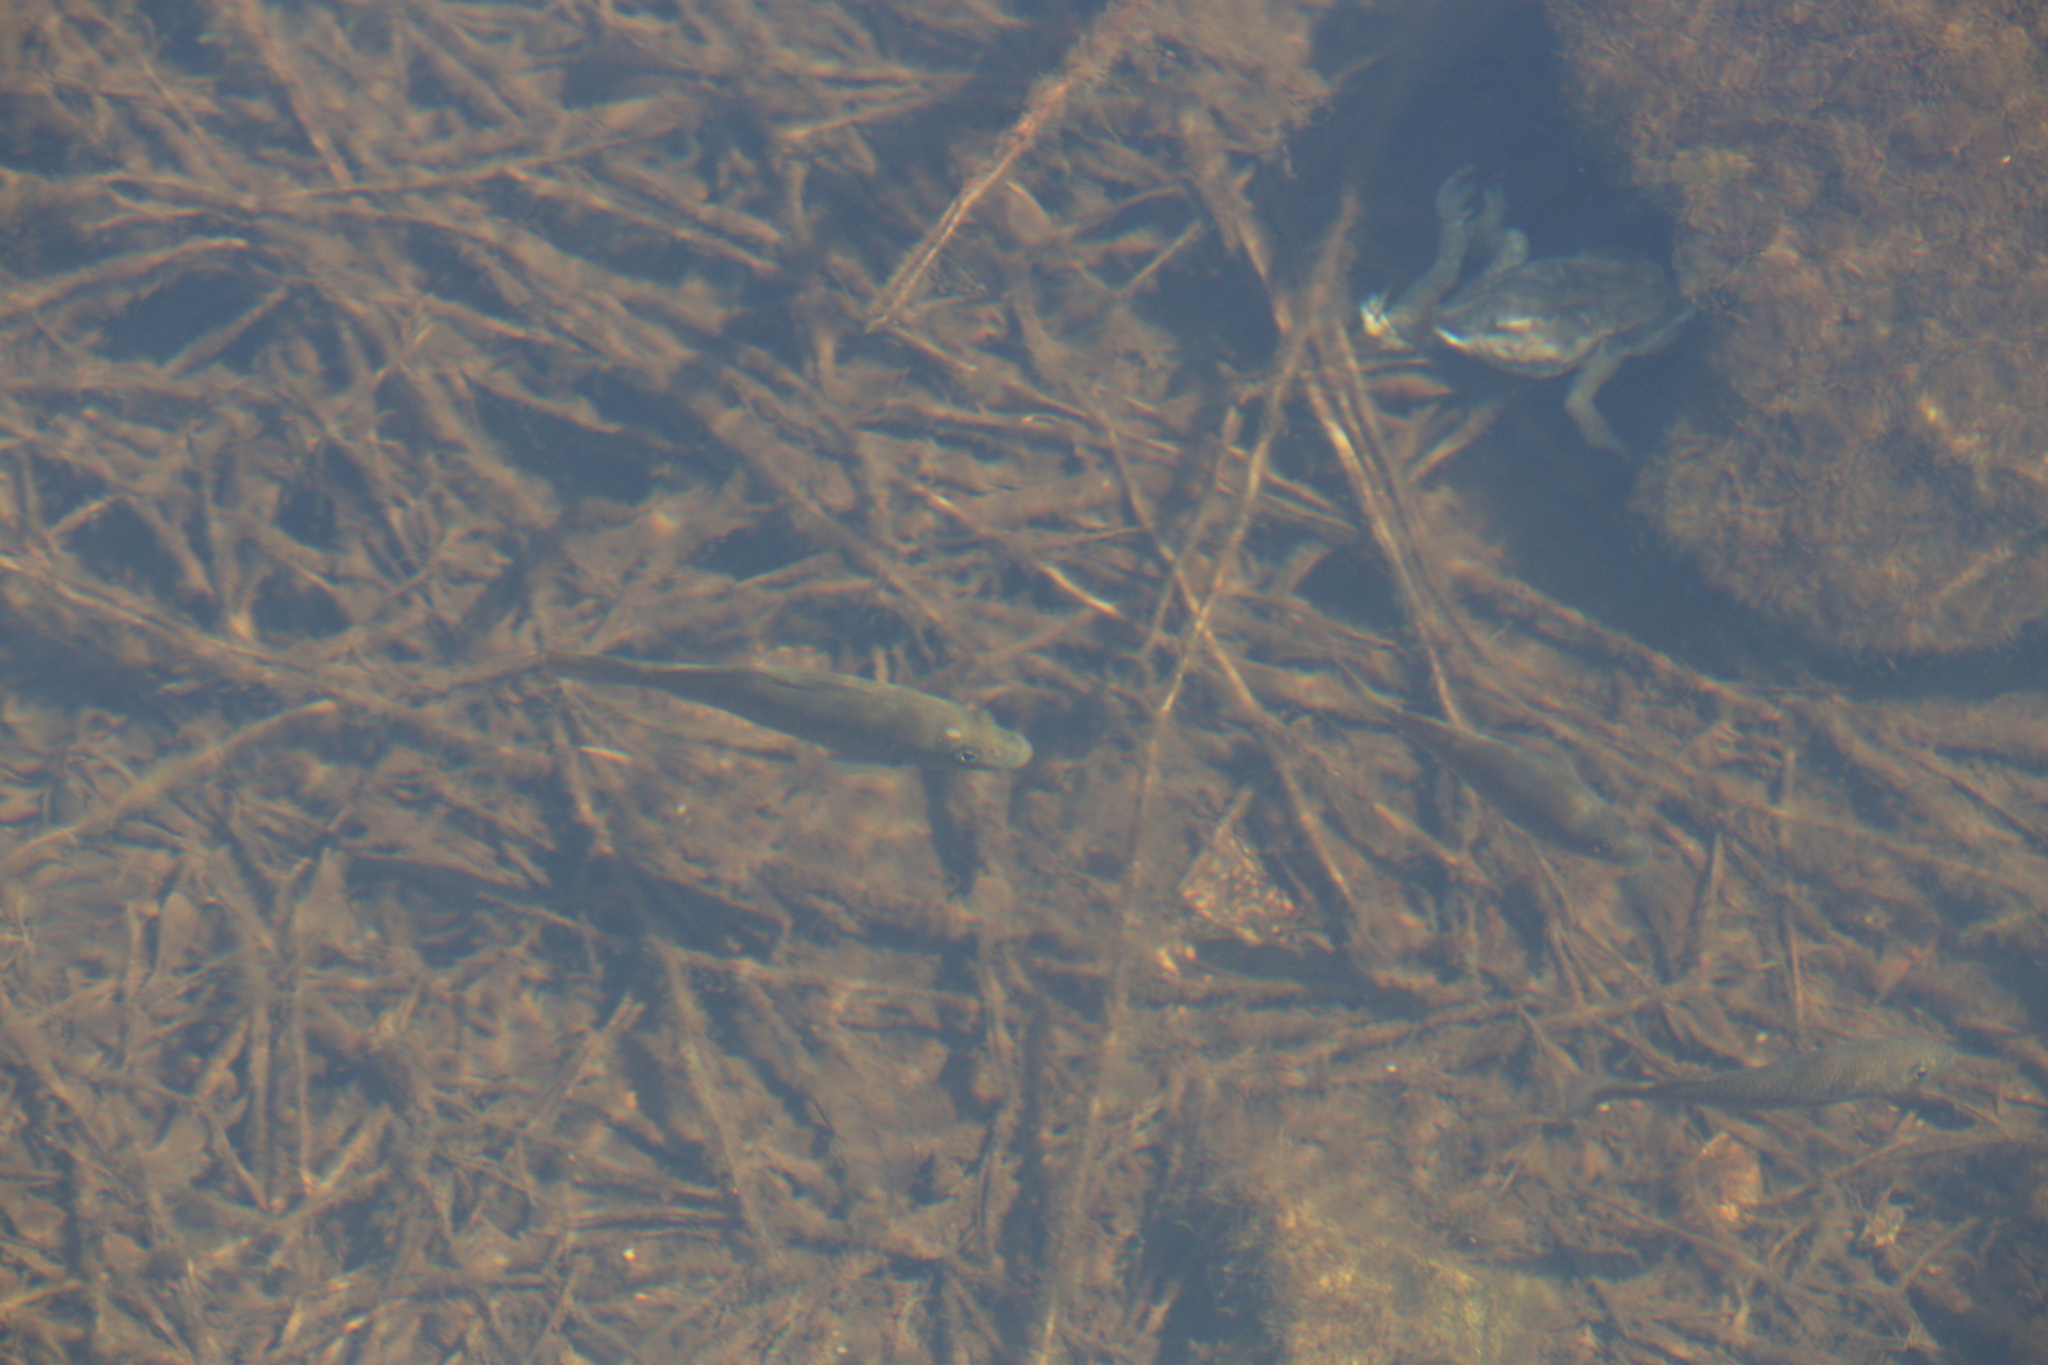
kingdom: Animalia
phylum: Chordata
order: Perciformes
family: Terapontidae
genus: Leiopotherapon
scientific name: Leiopotherapon unicolor
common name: Bobby
